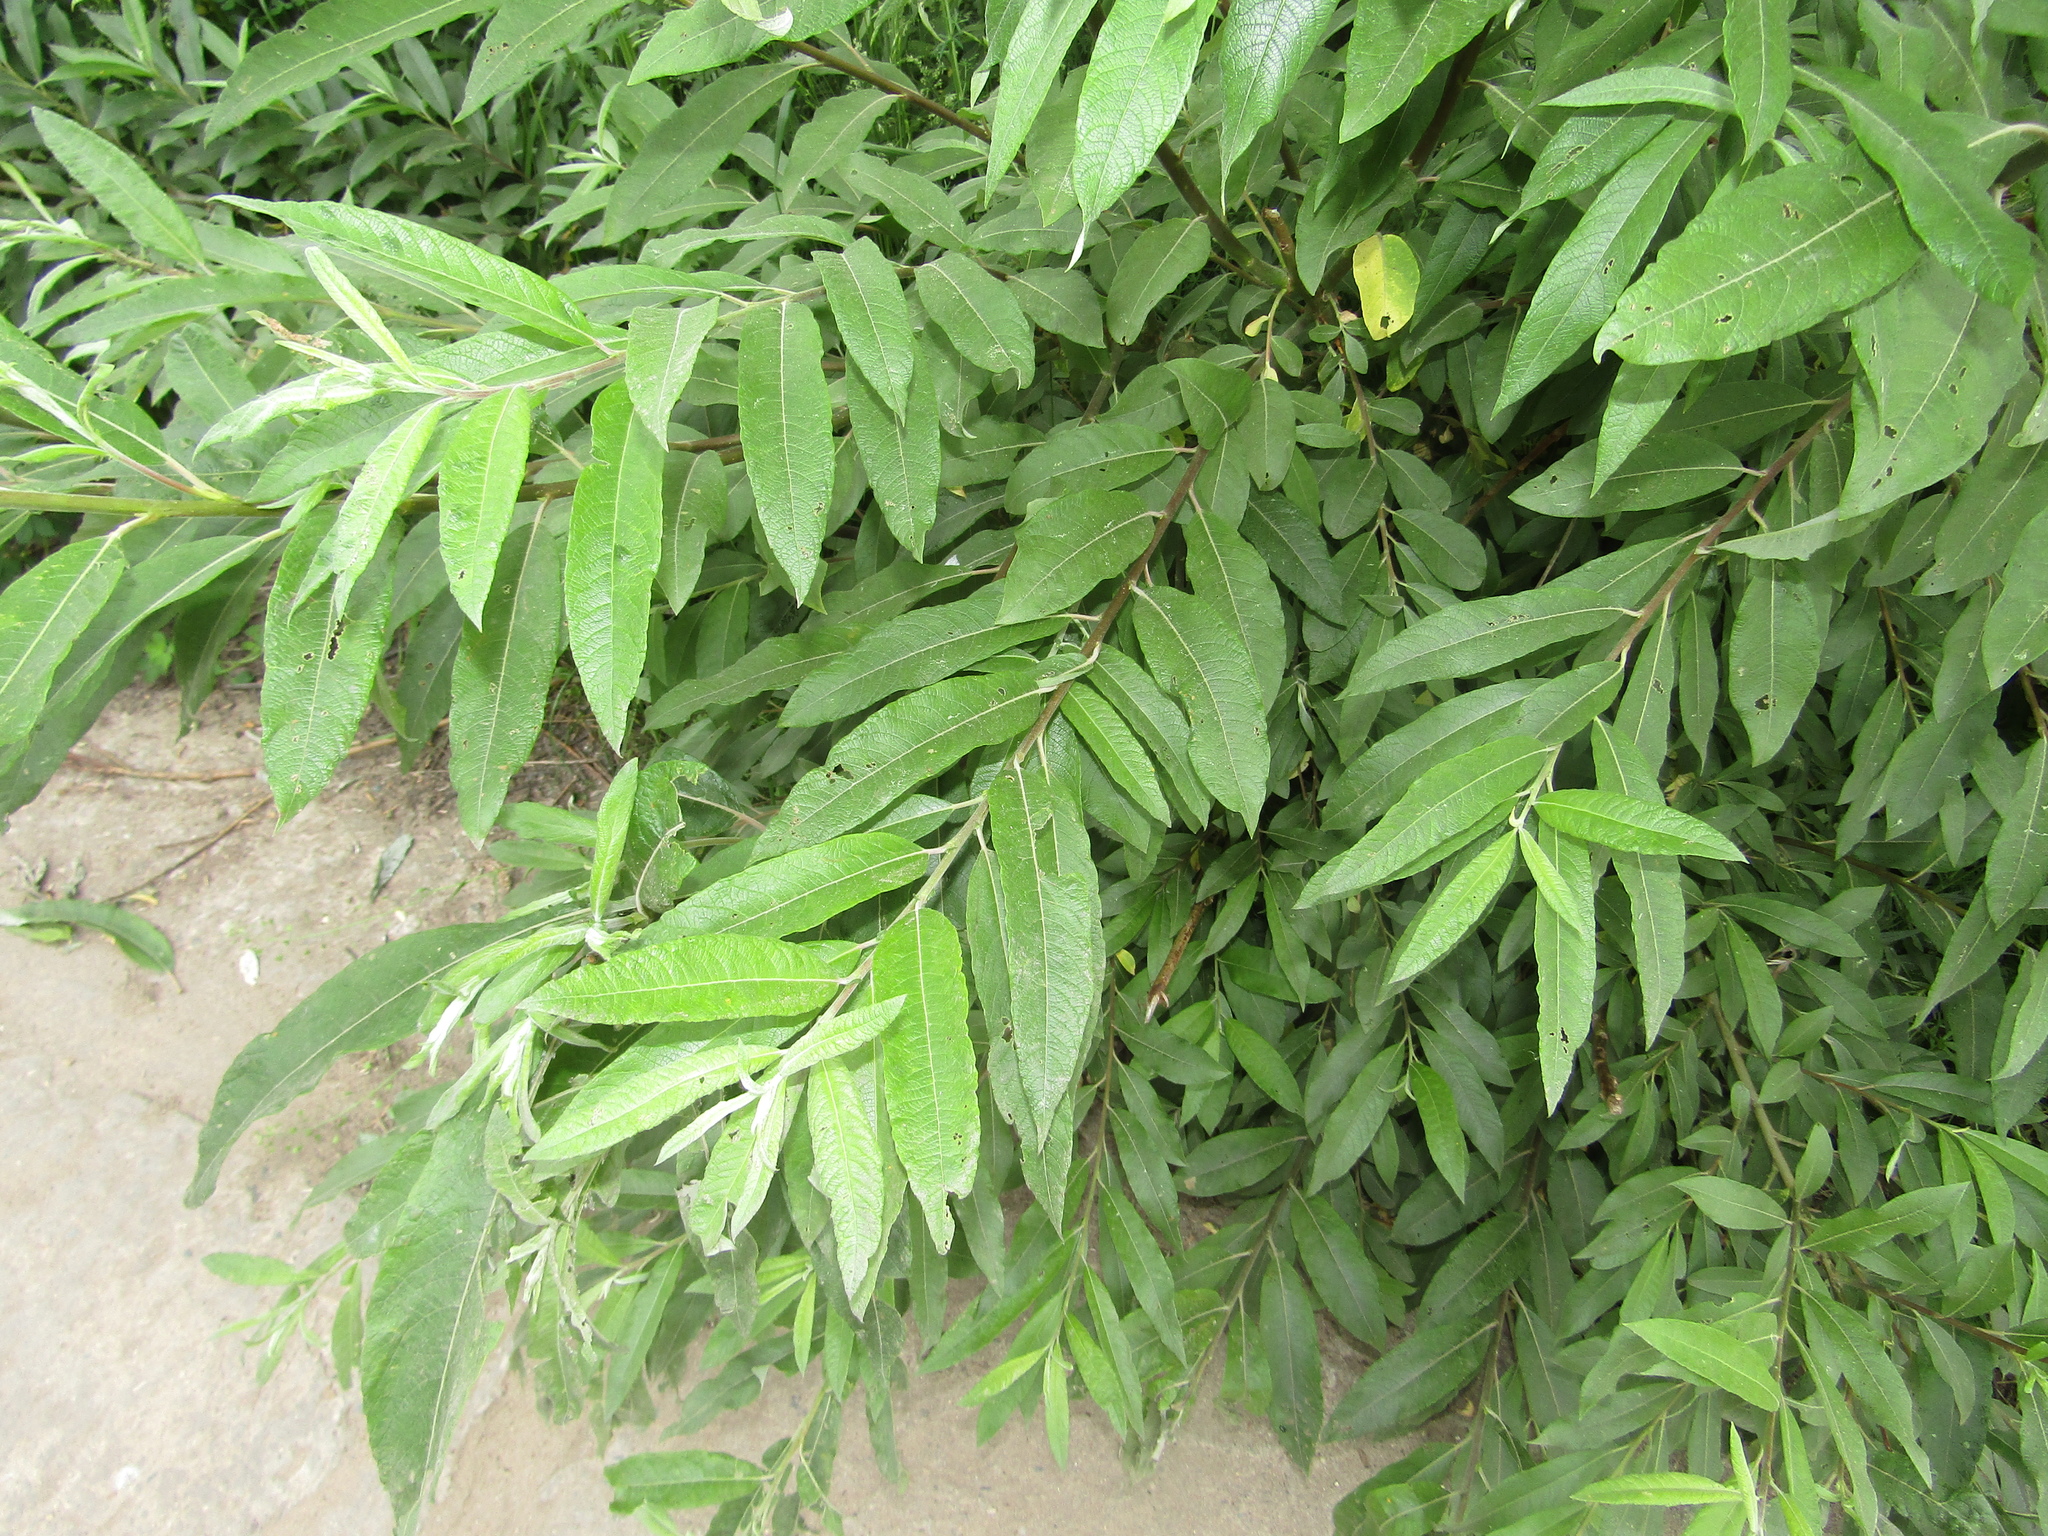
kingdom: Plantae
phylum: Tracheophyta
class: Magnoliopsida
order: Malpighiales
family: Salicaceae
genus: Salix
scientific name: Salix gmelinii
